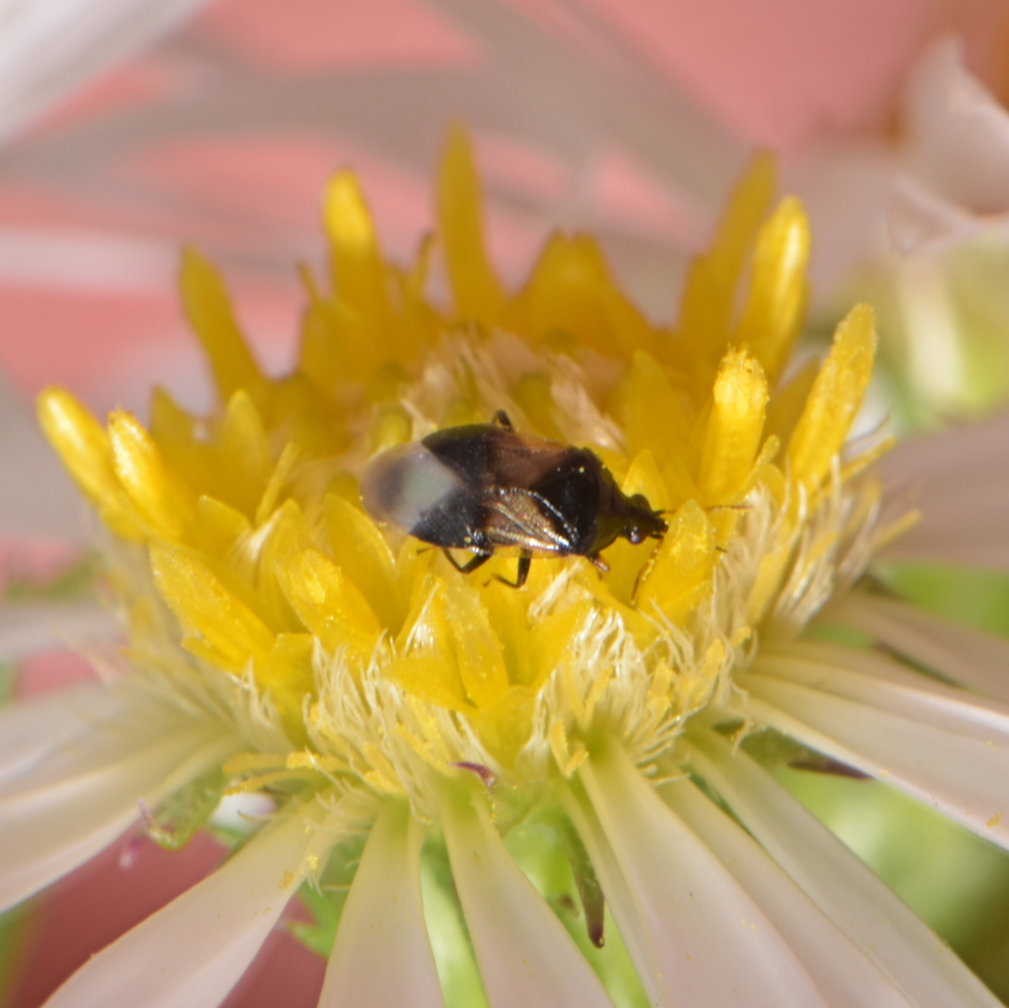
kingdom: Animalia
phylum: Arthropoda
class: Insecta
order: Hemiptera
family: Anthocoridae
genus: Orius
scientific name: Orius insidiosus
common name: Insidious flower bug
